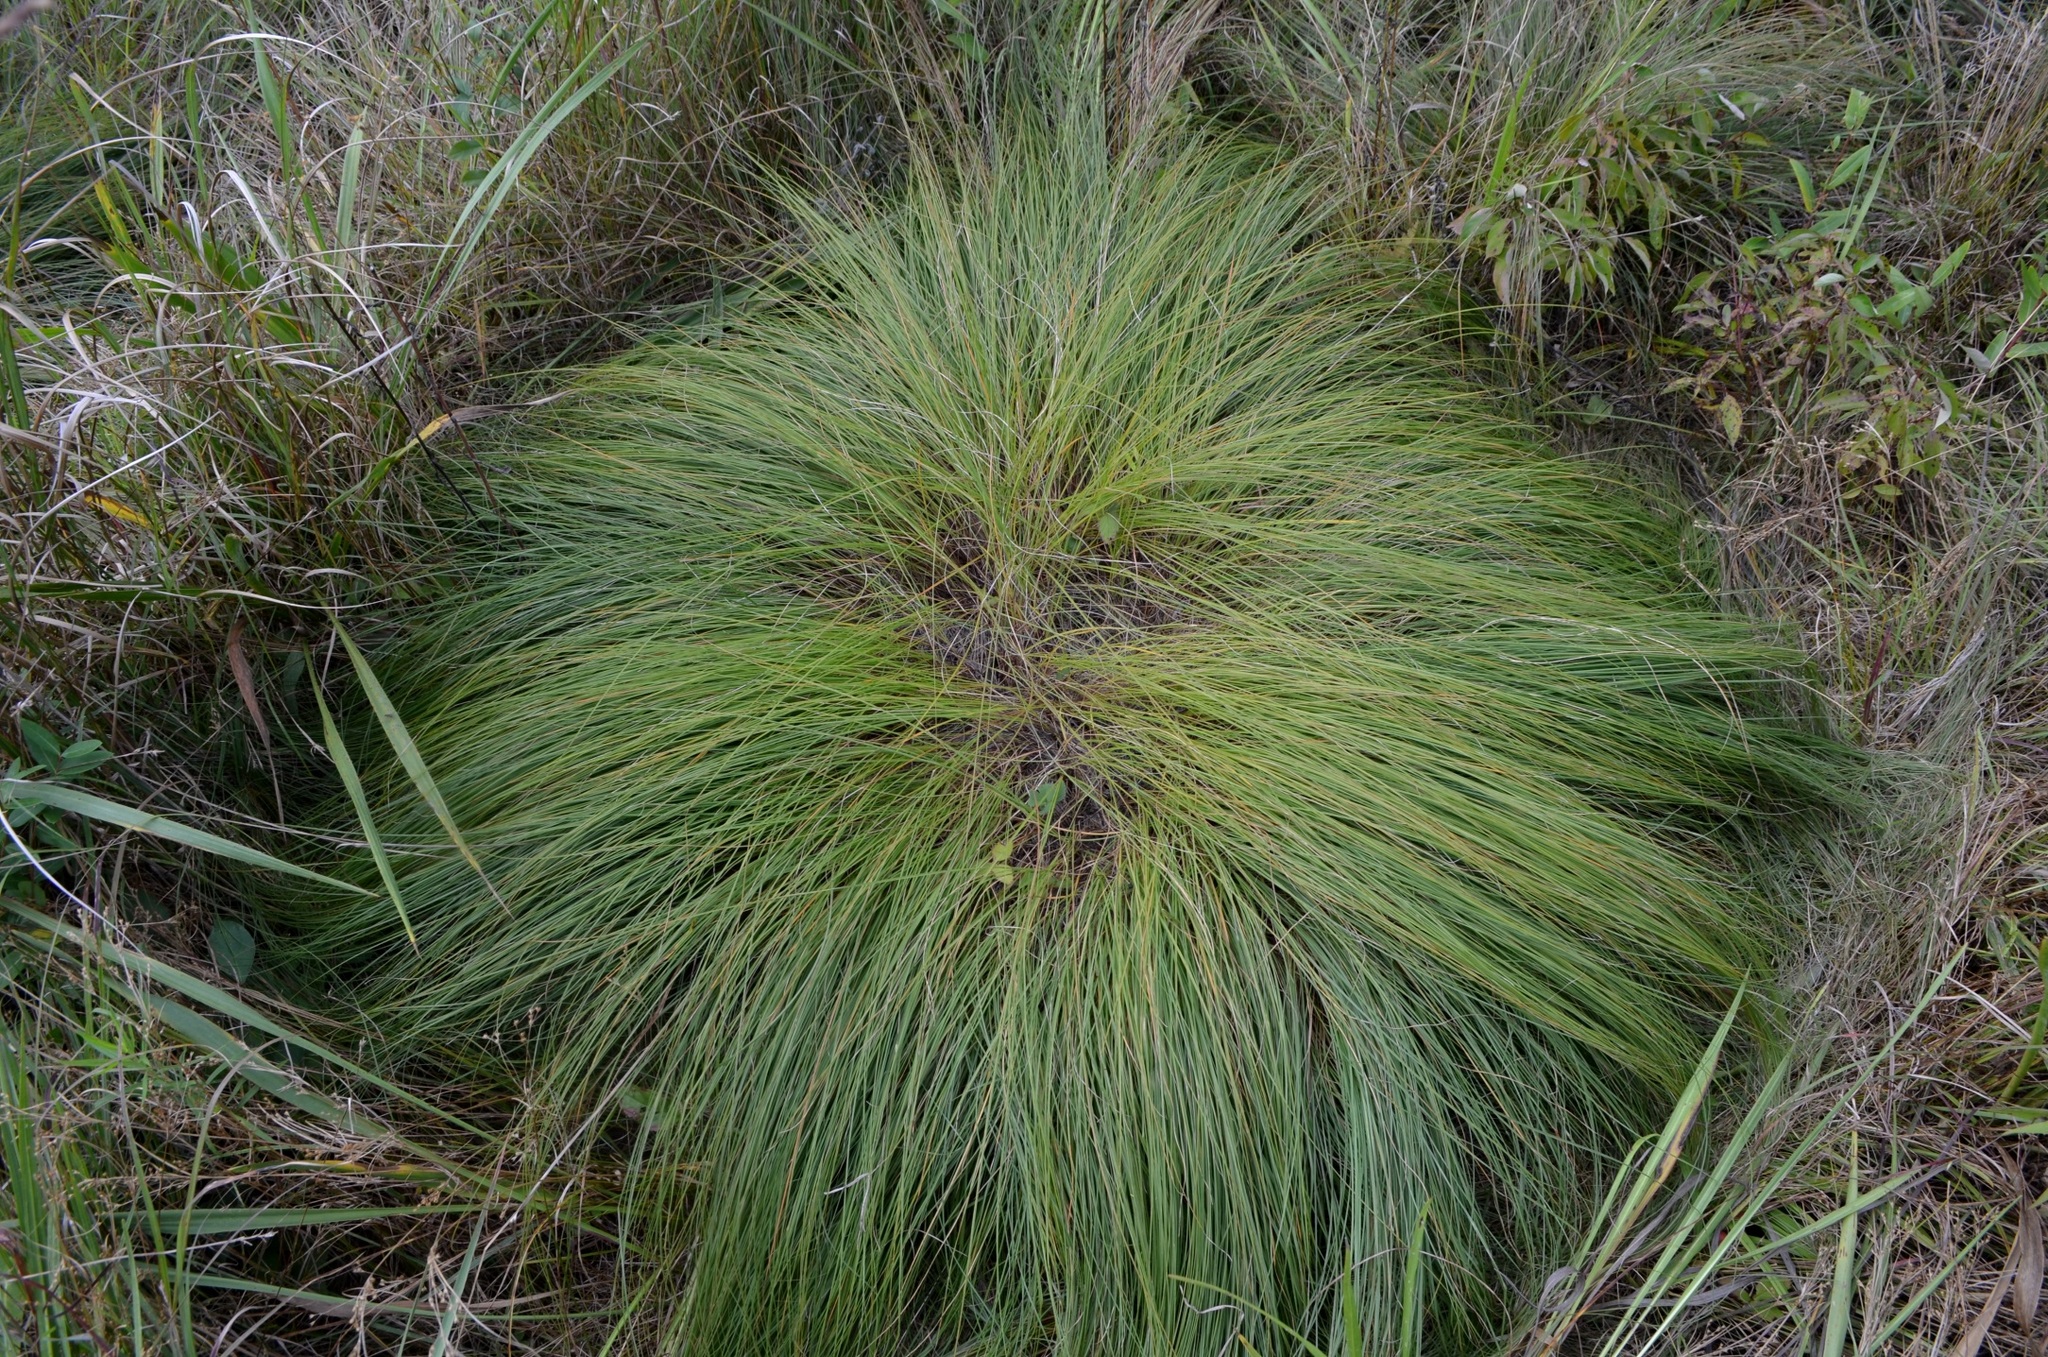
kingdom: Plantae
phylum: Tracheophyta
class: Liliopsida
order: Poales
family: Poaceae
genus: Sporobolus
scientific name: Sporobolus heterolepis
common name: Prairie dropseed
